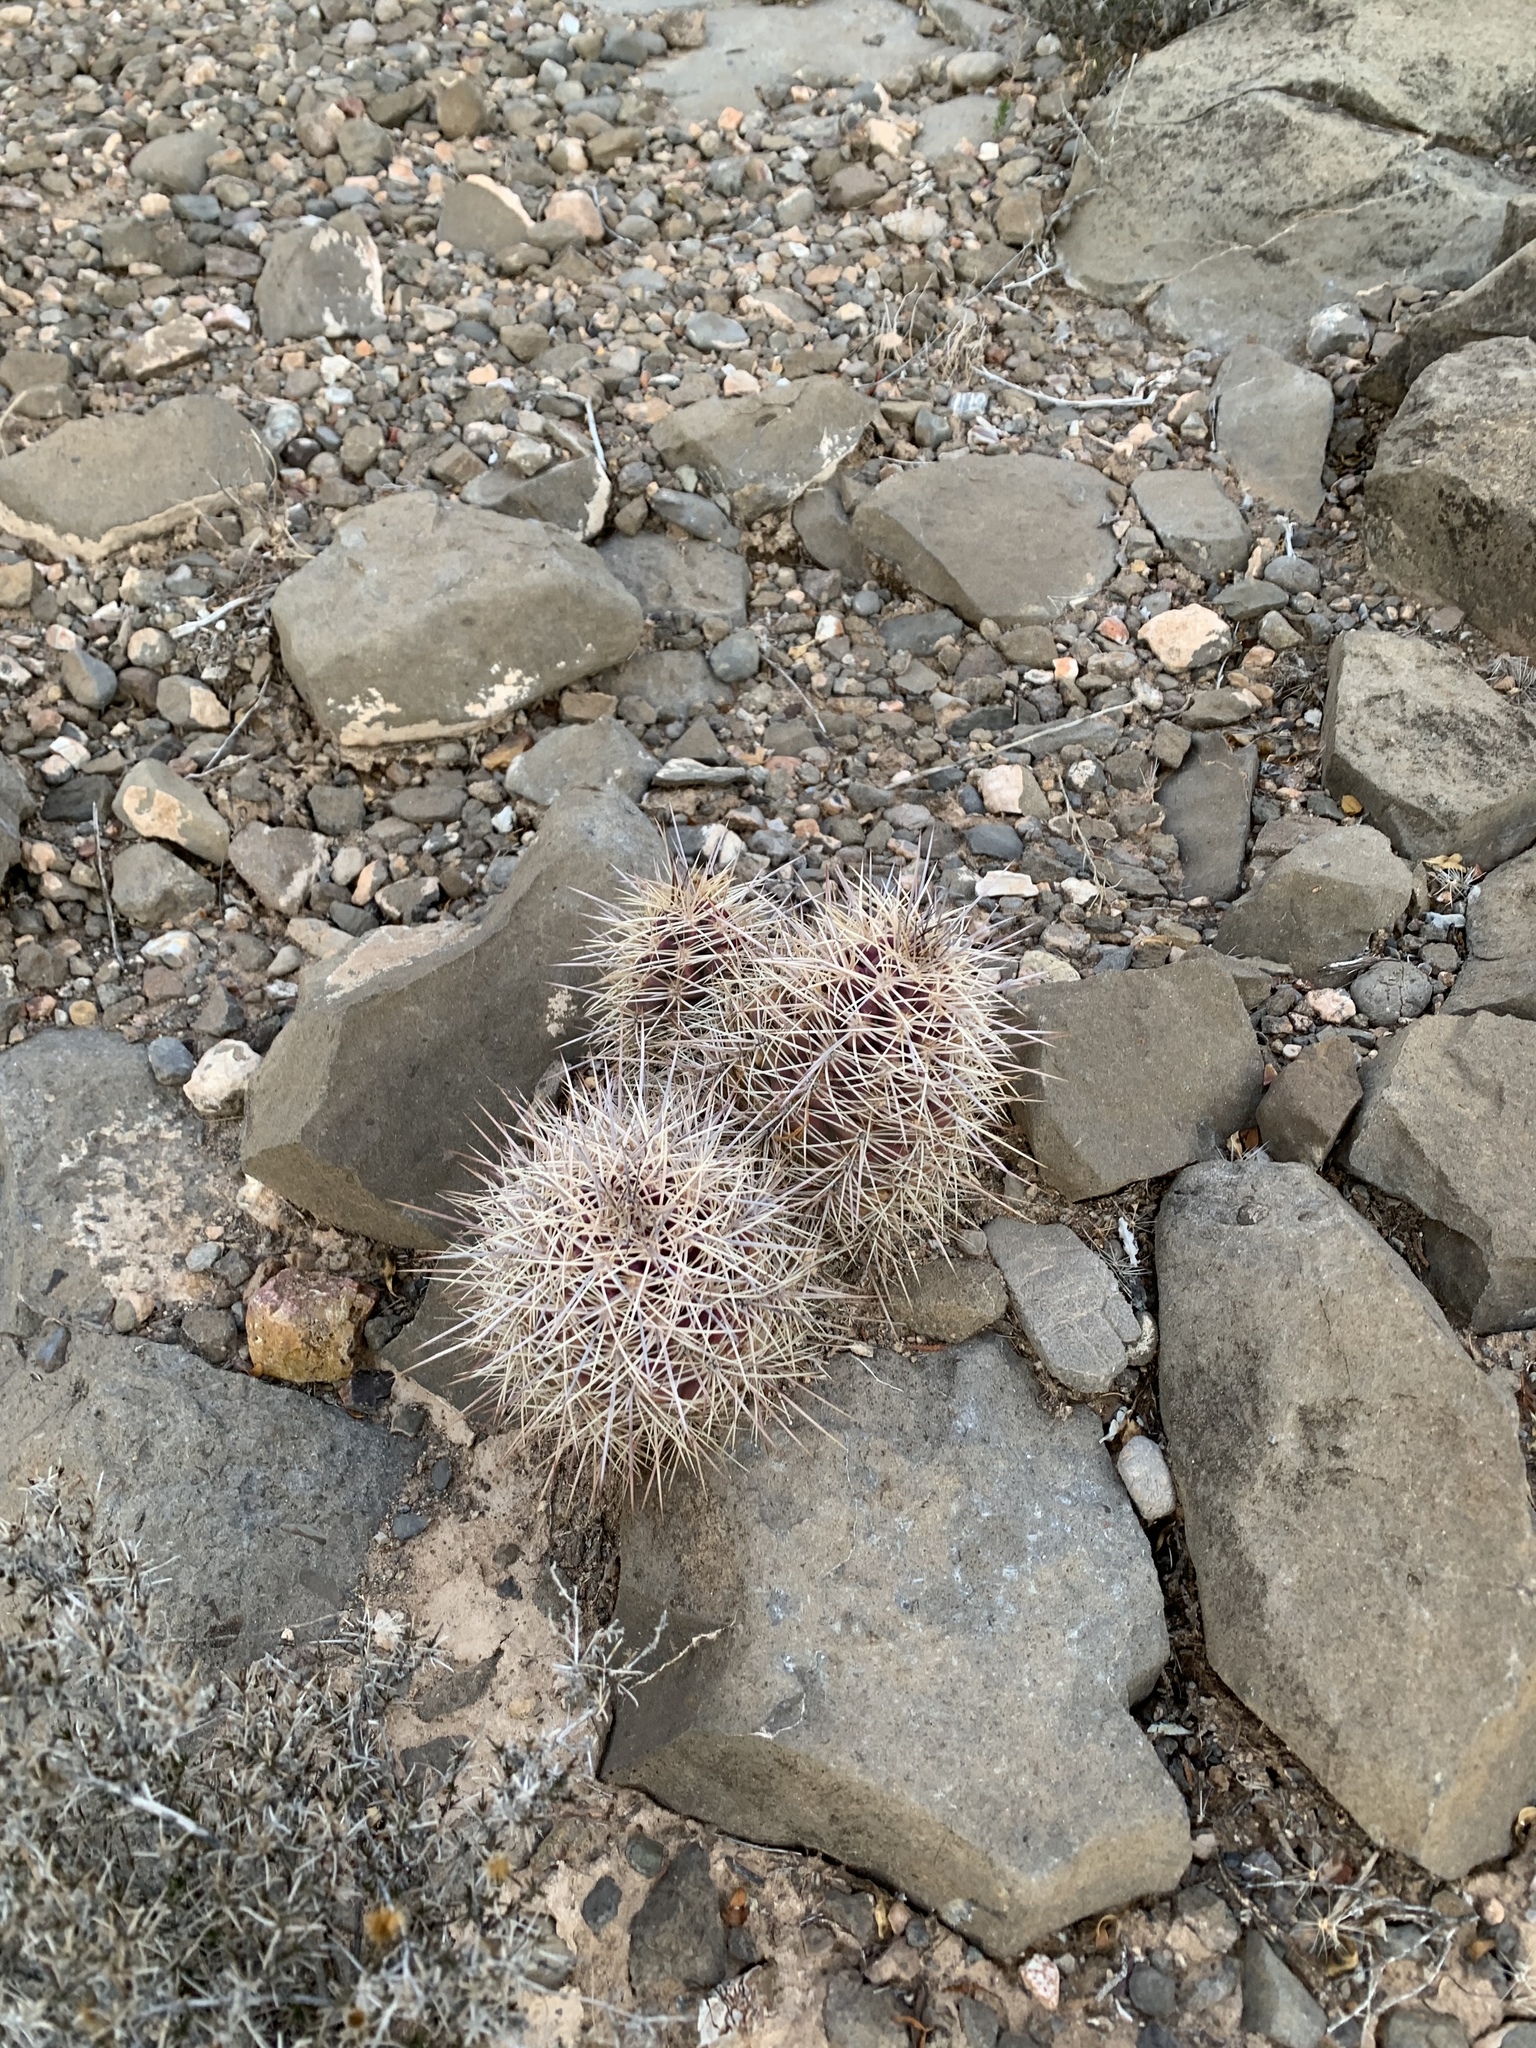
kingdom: Plantae
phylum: Tracheophyta
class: Magnoliopsida
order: Caryophyllales
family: Cactaceae
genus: Echinocereus
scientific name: Echinocereus coccineus
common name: Scarlet hedgehog cactus
